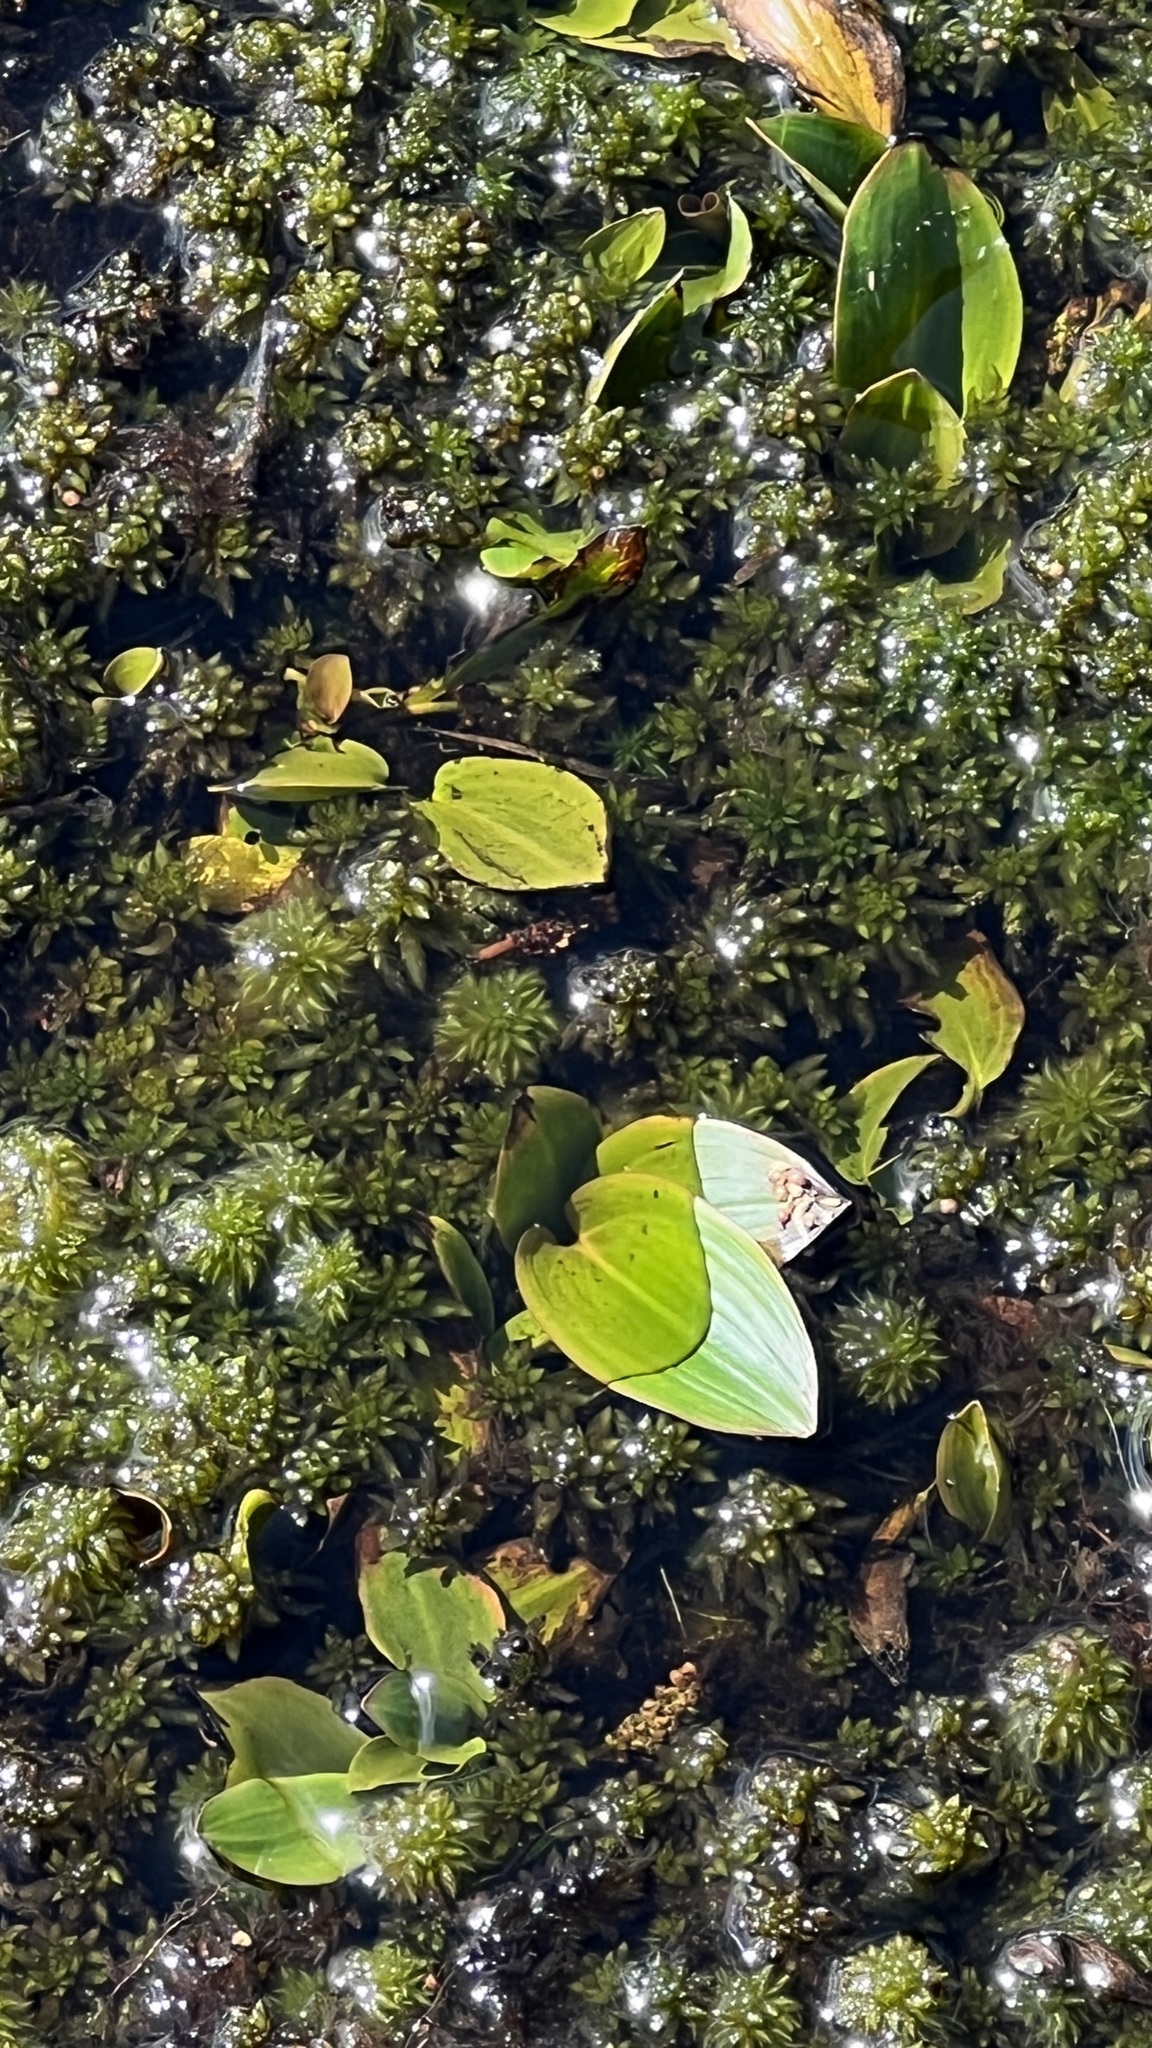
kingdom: Plantae
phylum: Tracheophyta
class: Liliopsida
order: Alismatales
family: Potamogetonaceae
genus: Potamogeton
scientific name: Potamogeton polygonifolius
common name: Bog pondweed
